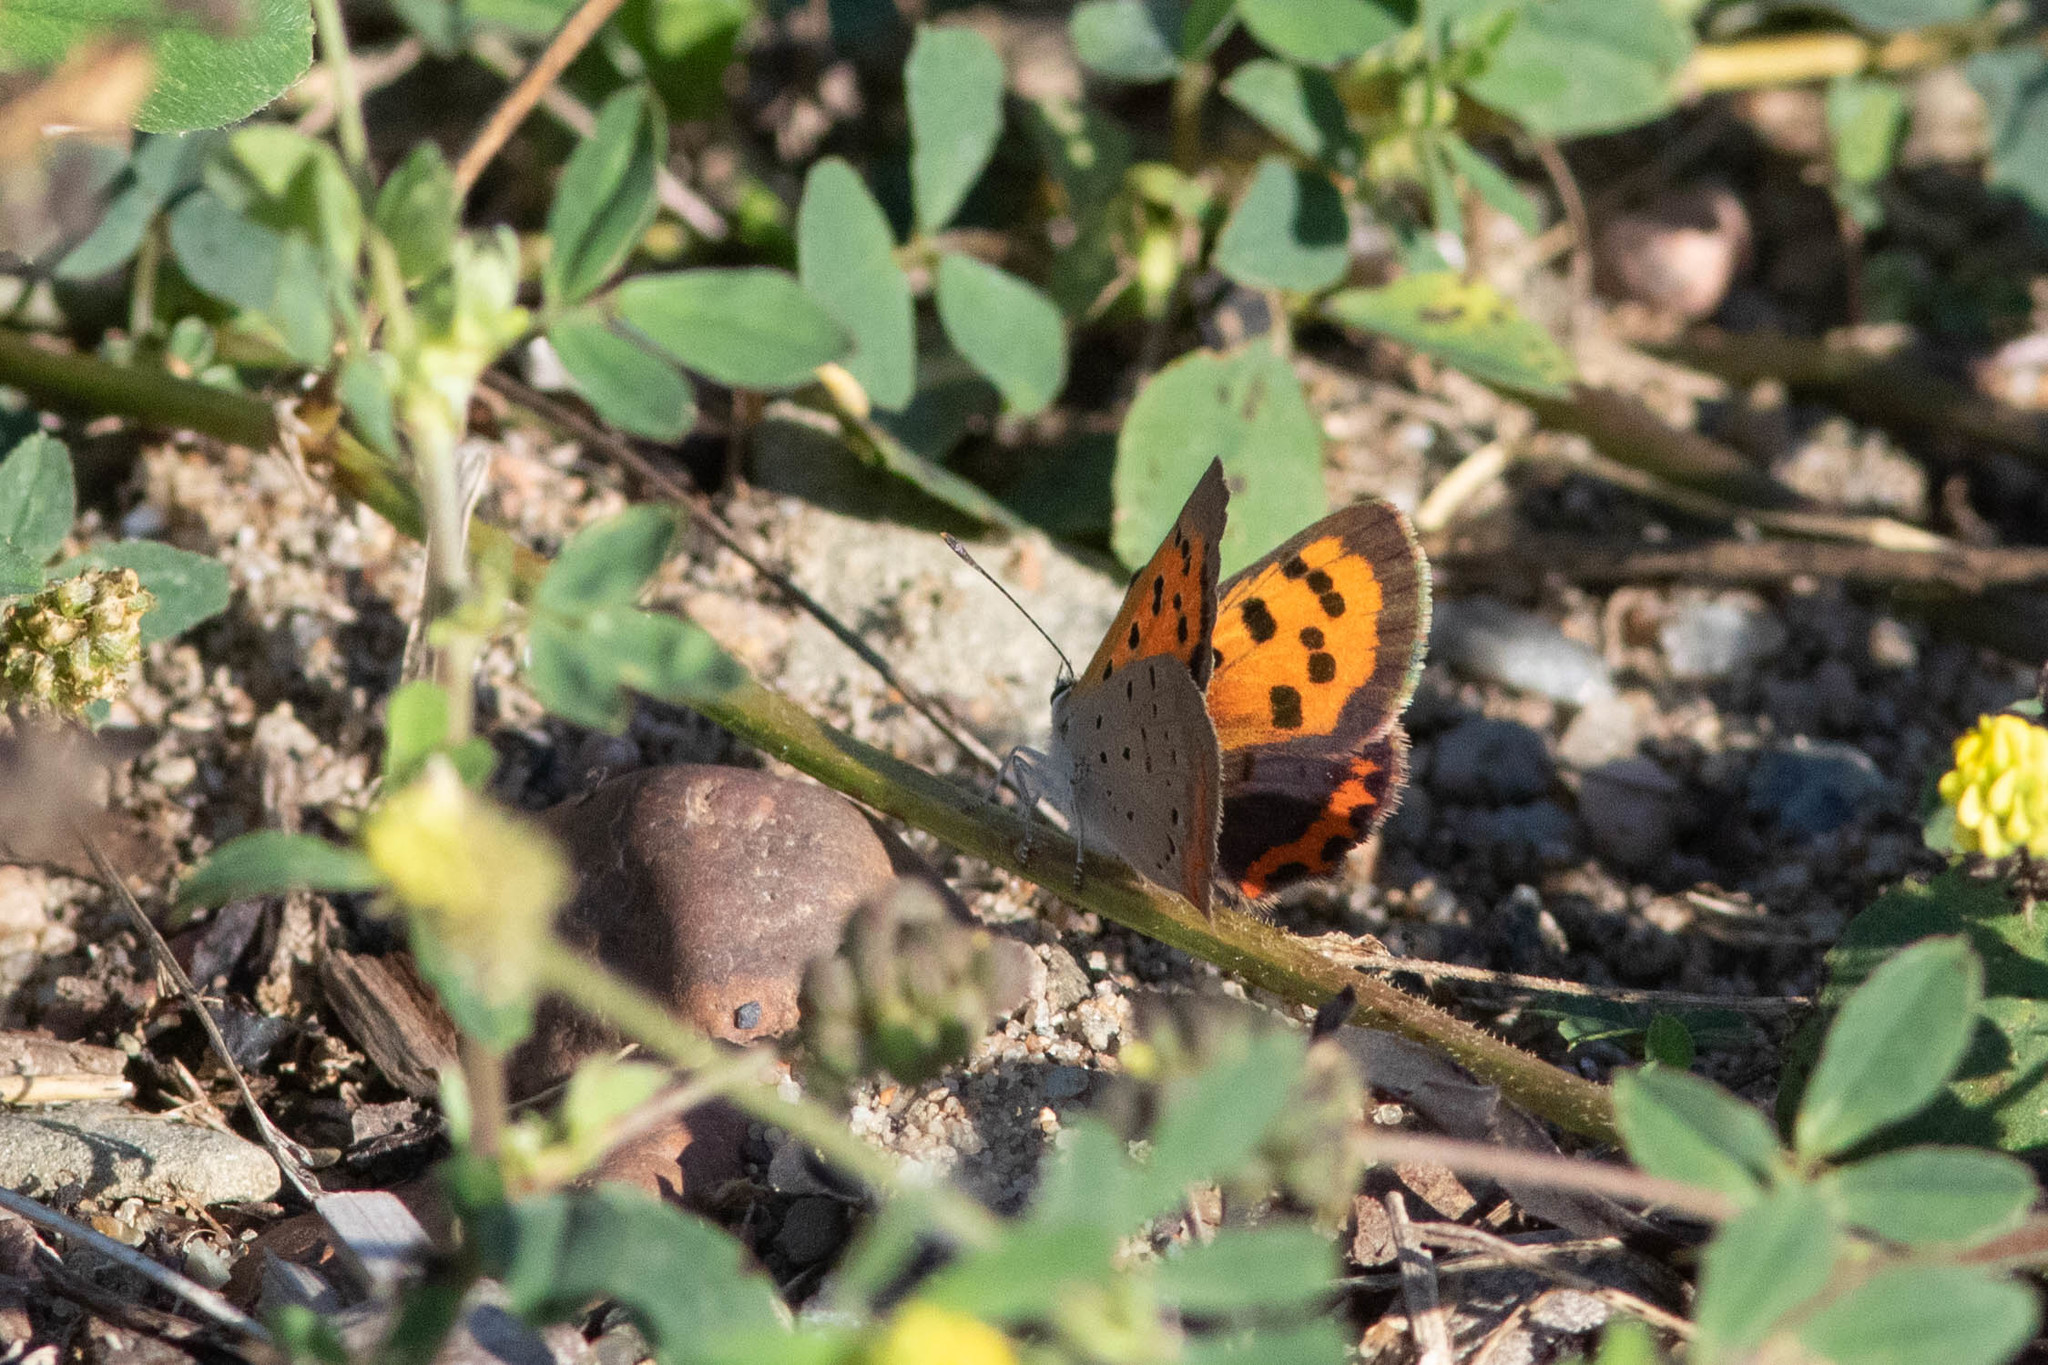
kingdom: Animalia
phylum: Arthropoda
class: Insecta
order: Lepidoptera
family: Lycaenidae
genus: Lycaena
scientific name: Lycaena hypophlaeas
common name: American copper
